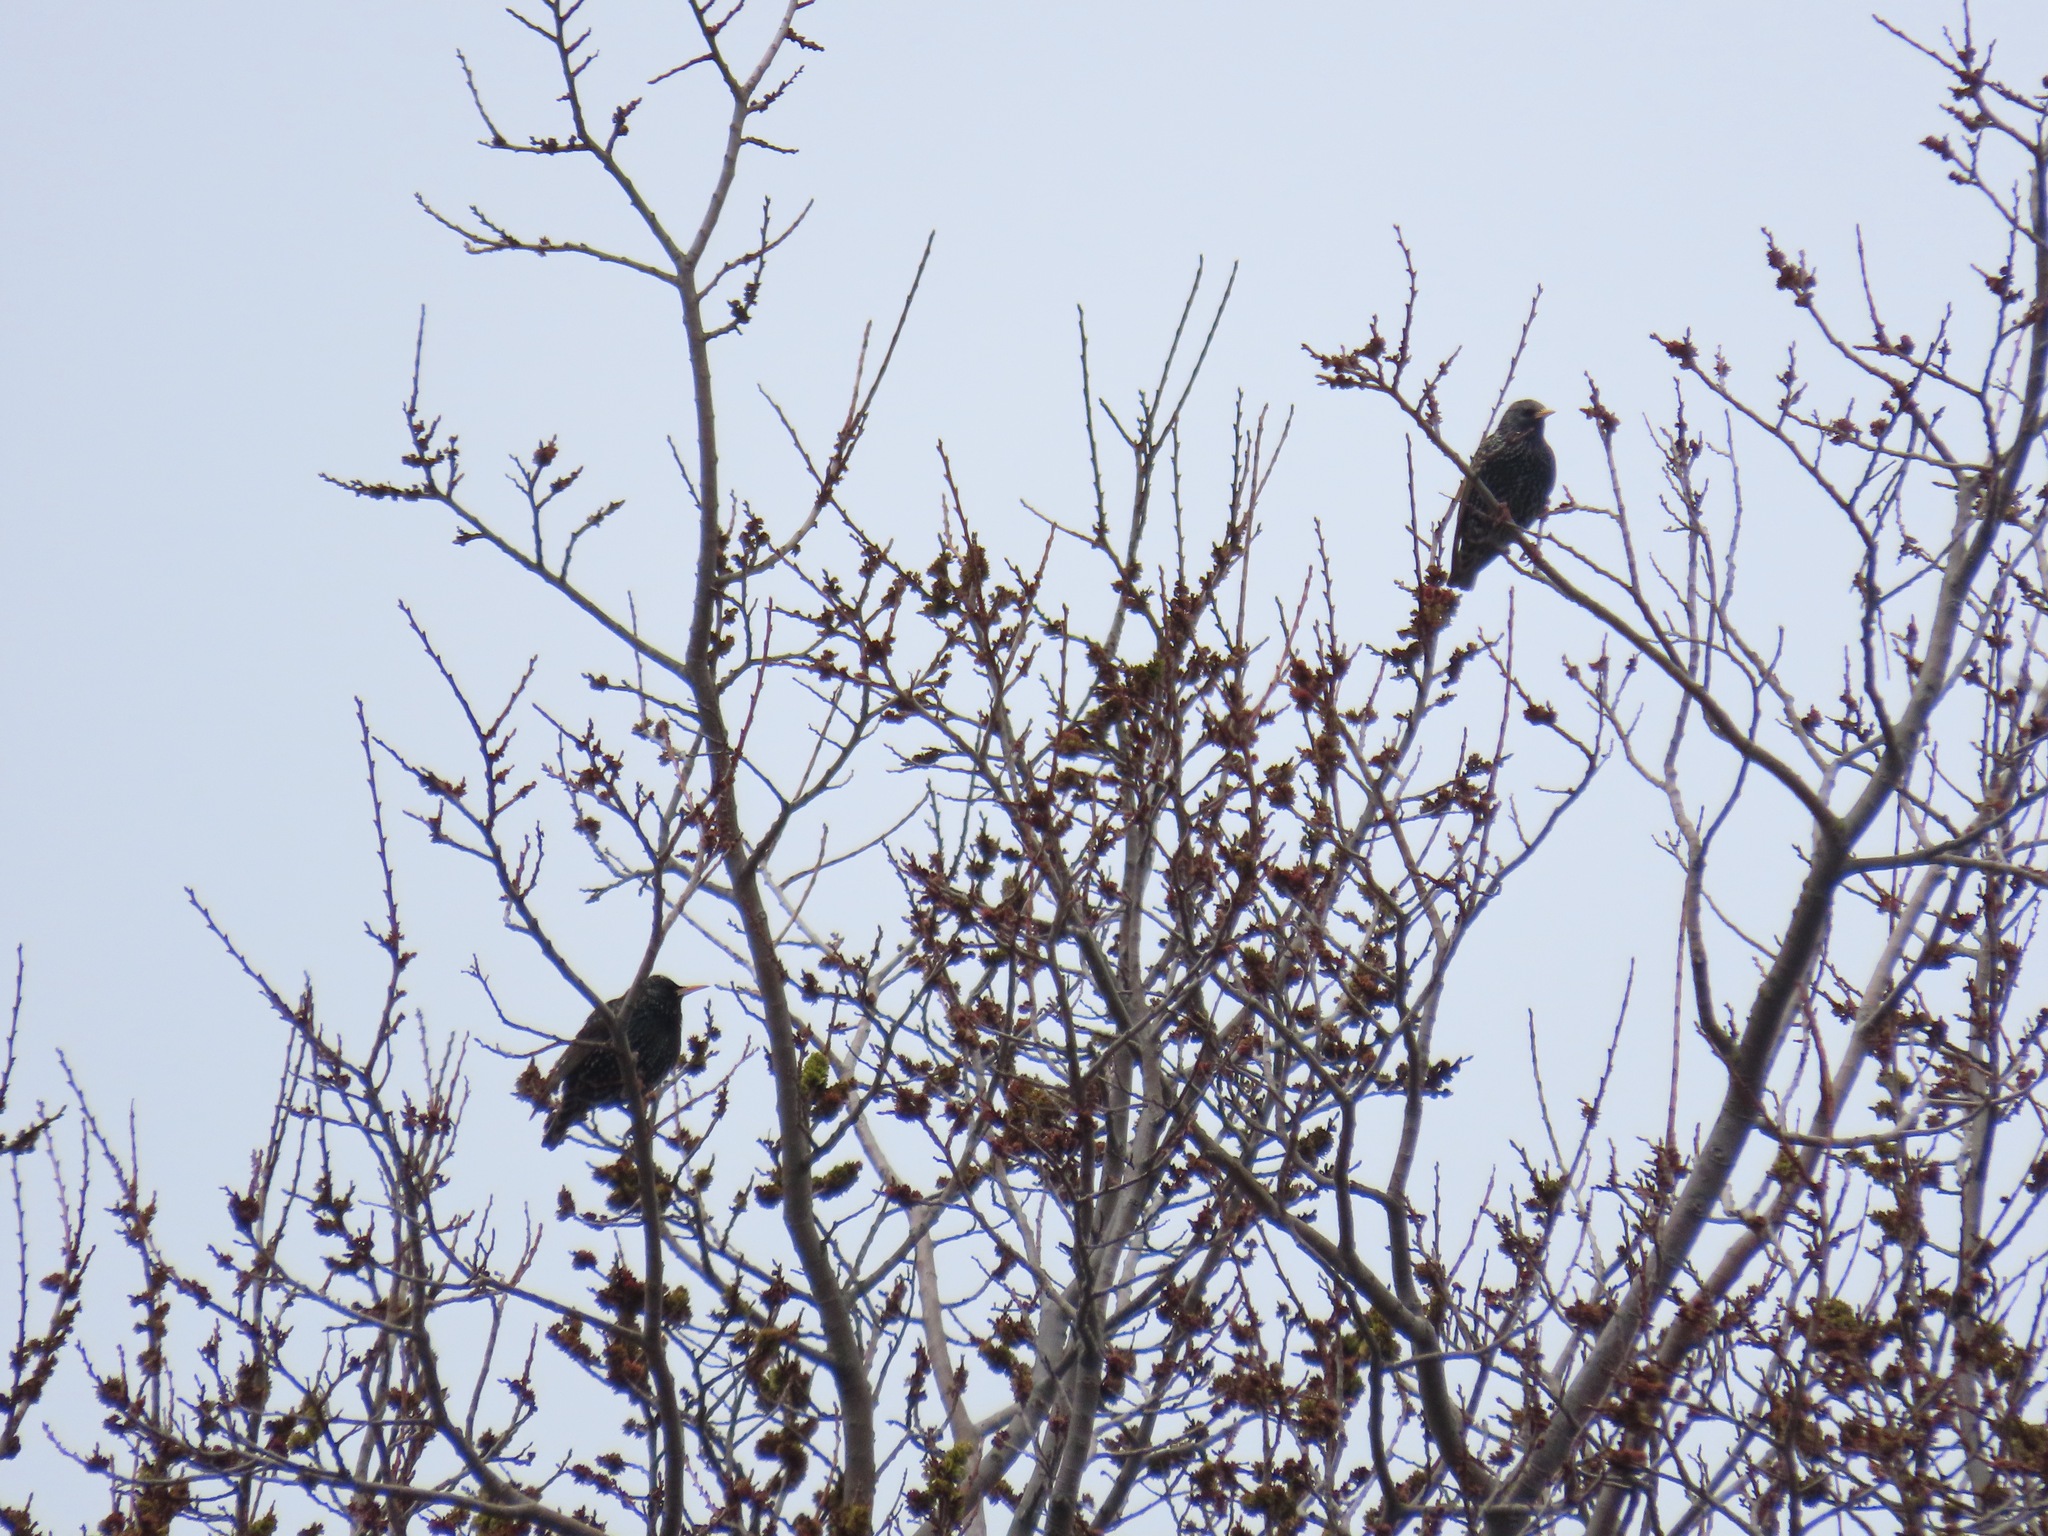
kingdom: Animalia
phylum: Chordata
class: Aves
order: Passeriformes
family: Sturnidae
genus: Sturnus
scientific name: Sturnus vulgaris
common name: Common starling
